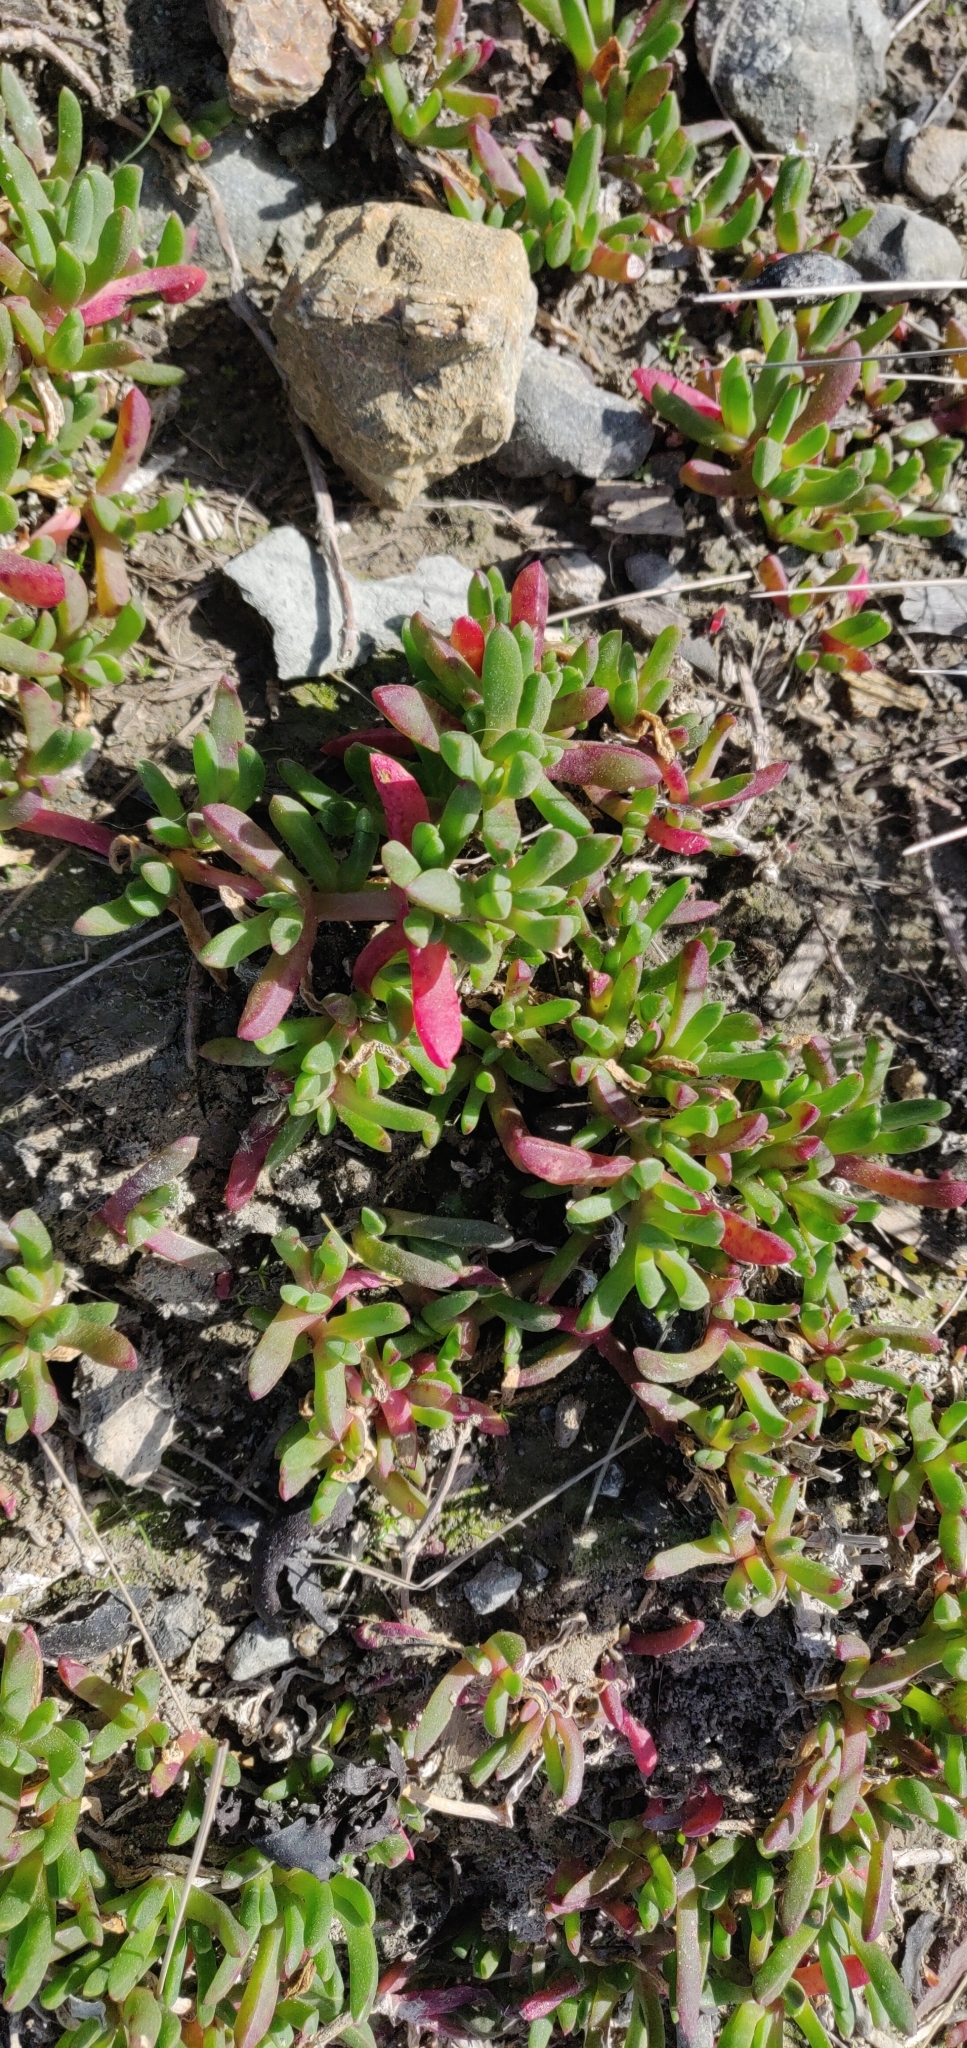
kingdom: Plantae
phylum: Tracheophyta
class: Magnoliopsida
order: Caryophyllales
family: Aizoaceae
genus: Disphyma
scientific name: Disphyma australe
